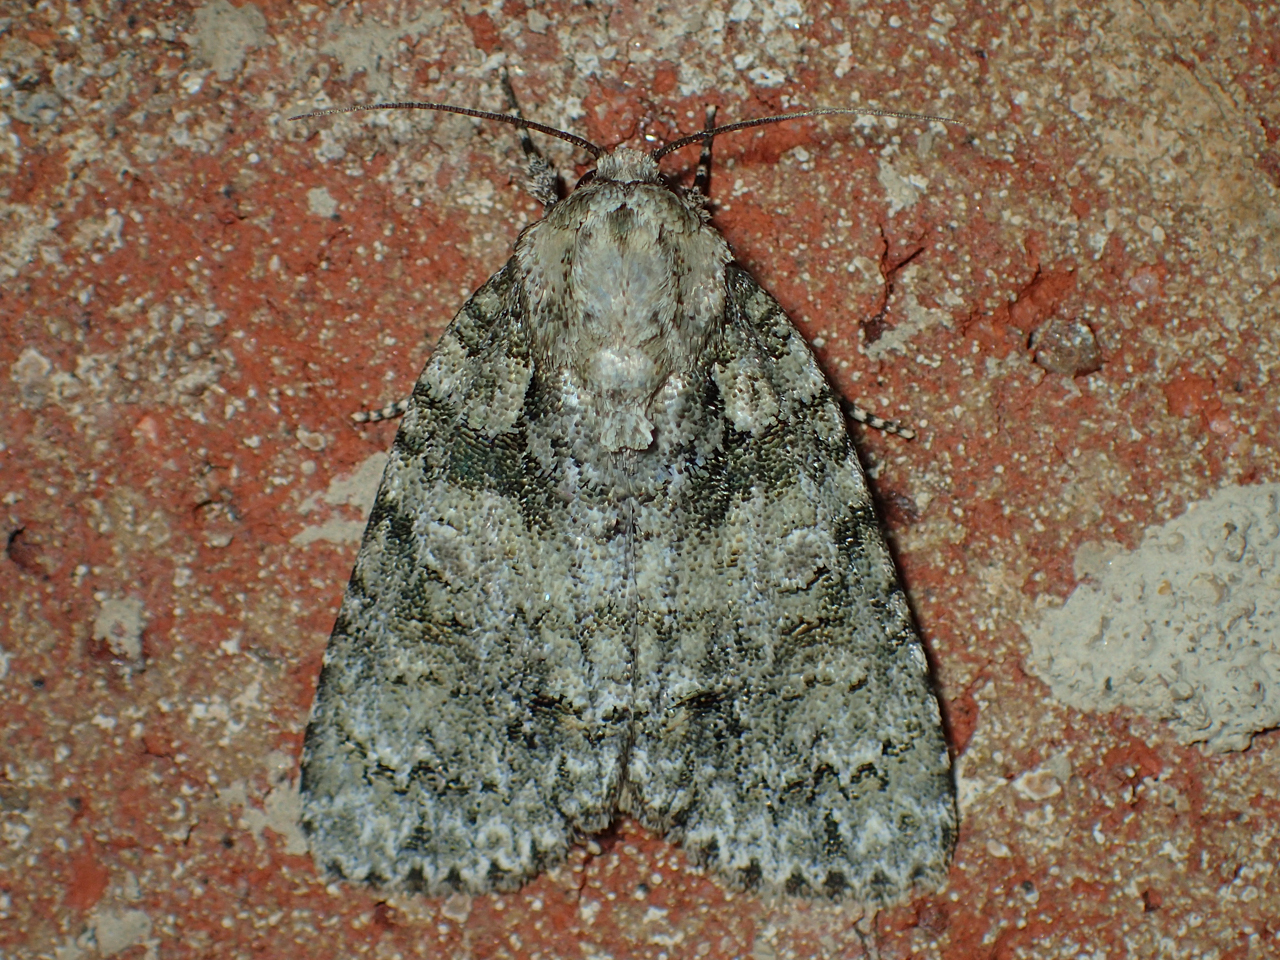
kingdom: Animalia
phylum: Arthropoda
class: Insecta
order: Lepidoptera
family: Noctuidae
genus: Acronicta
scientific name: Acronicta modica
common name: Hesitant dagger
